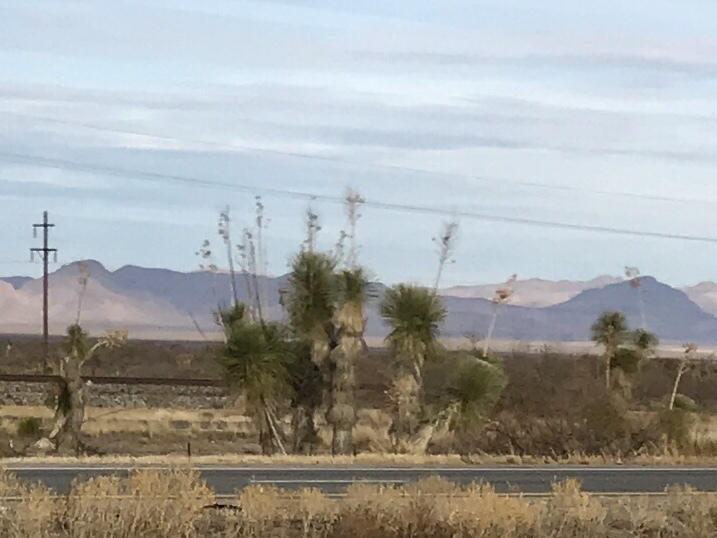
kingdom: Plantae
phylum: Tracheophyta
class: Liliopsida
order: Asparagales
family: Asparagaceae
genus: Yucca
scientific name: Yucca elata
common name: Palmella
